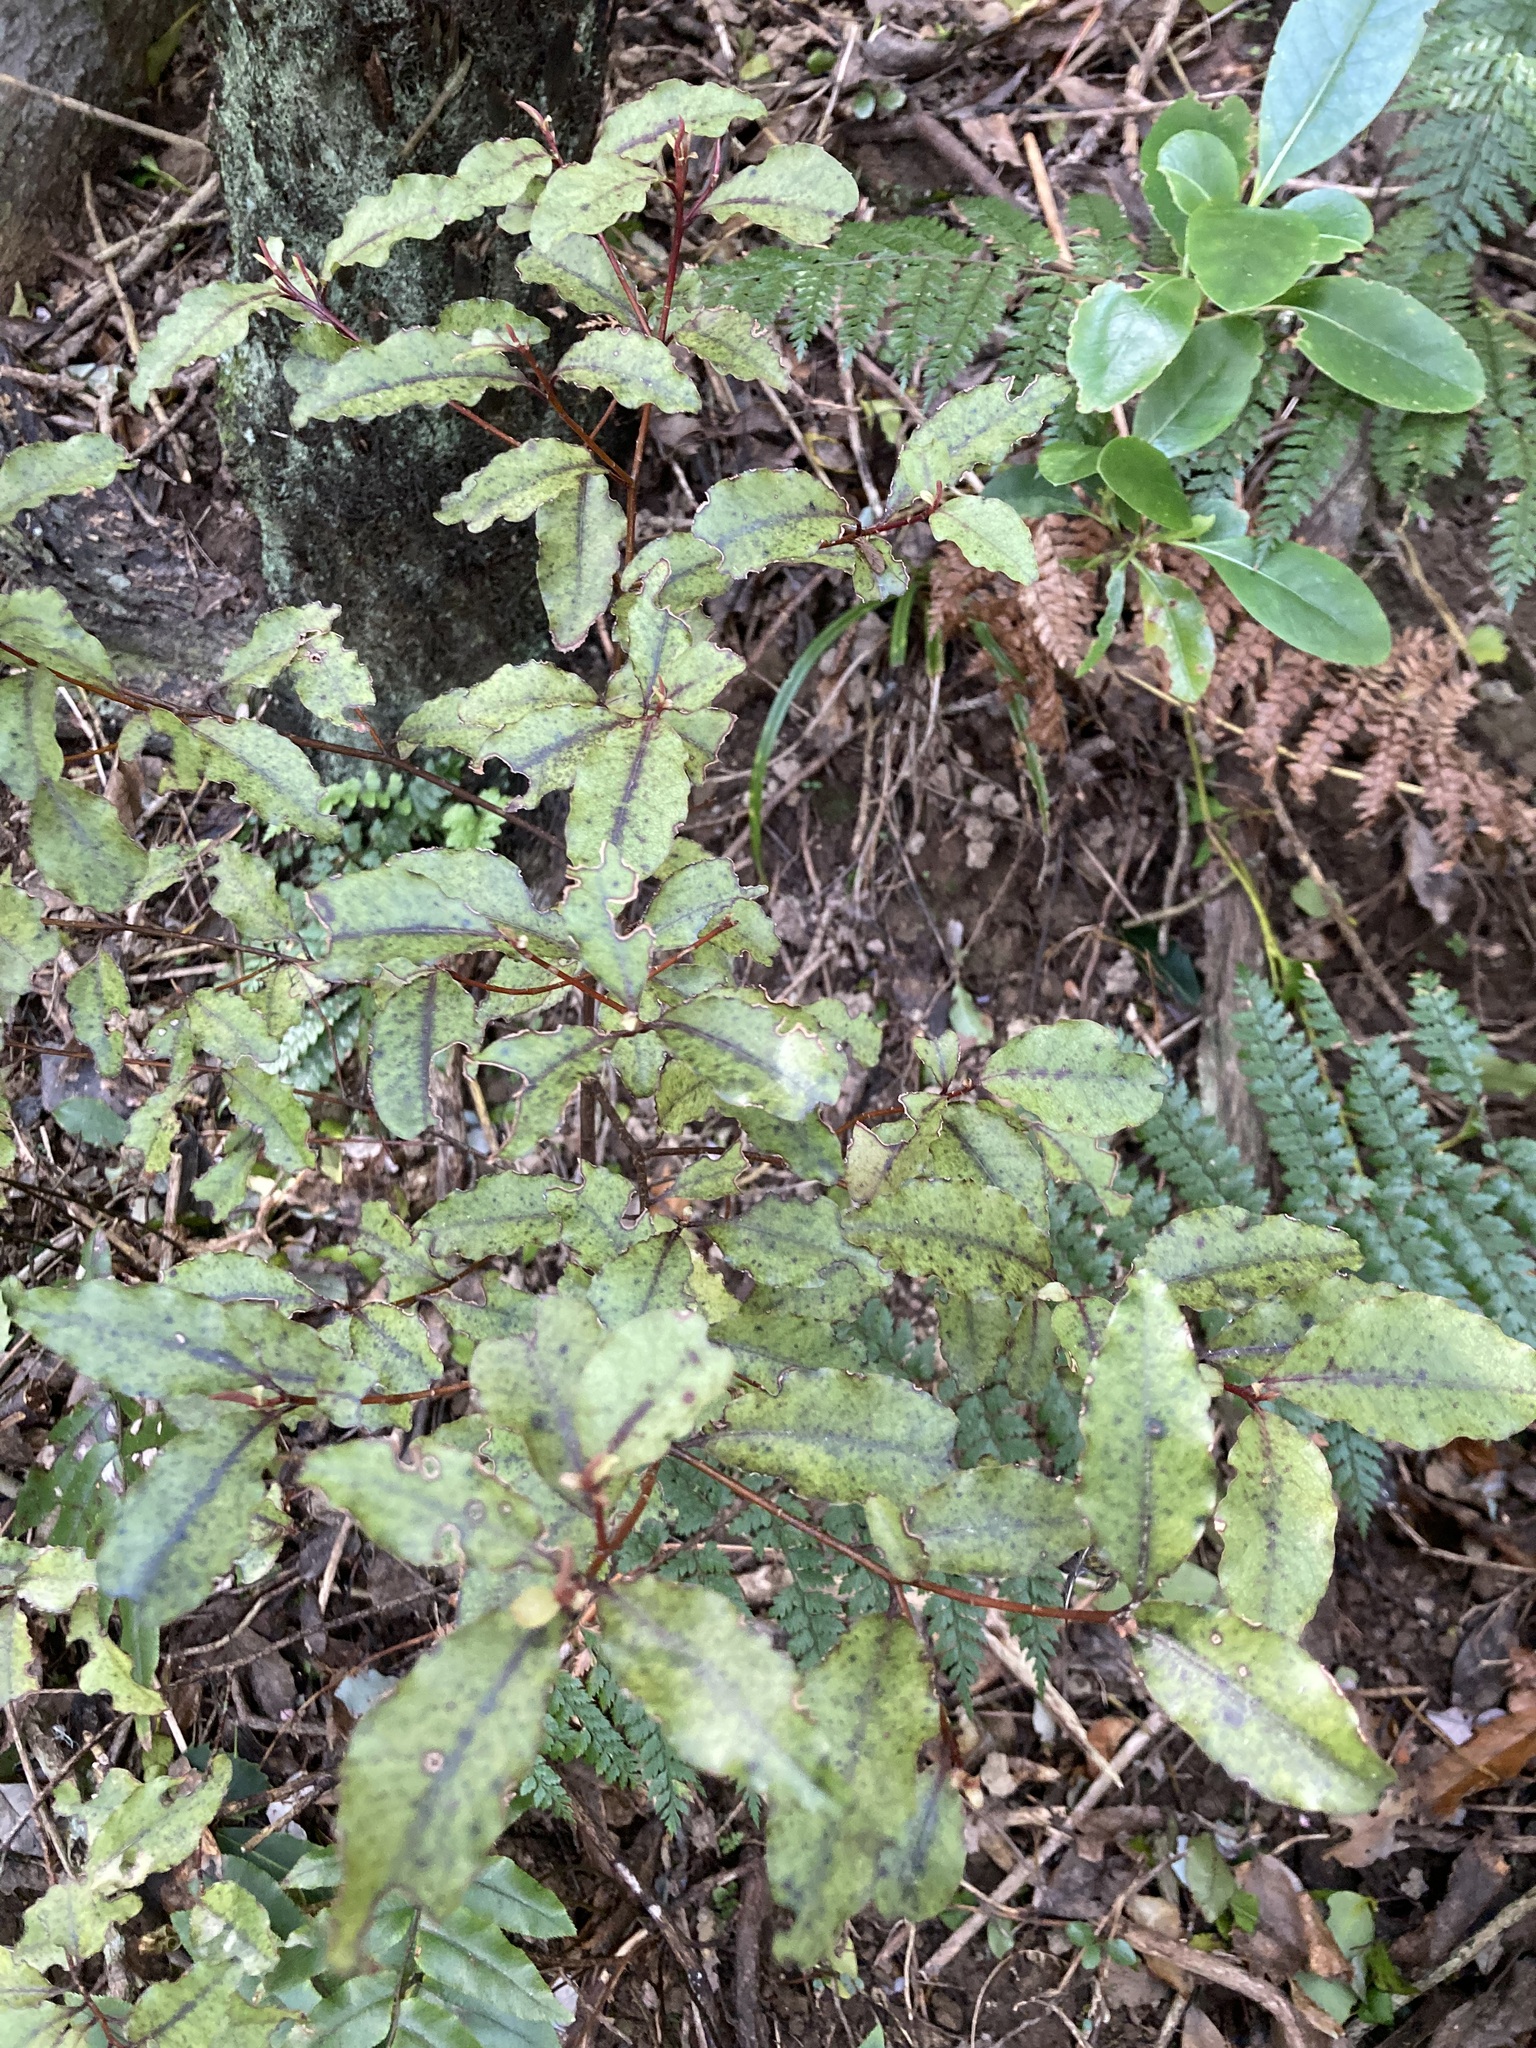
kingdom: Plantae
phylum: Tracheophyta
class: Magnoliopsida
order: Ericales
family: Primulaceae
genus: Myrsine
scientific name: Myrsine australis
